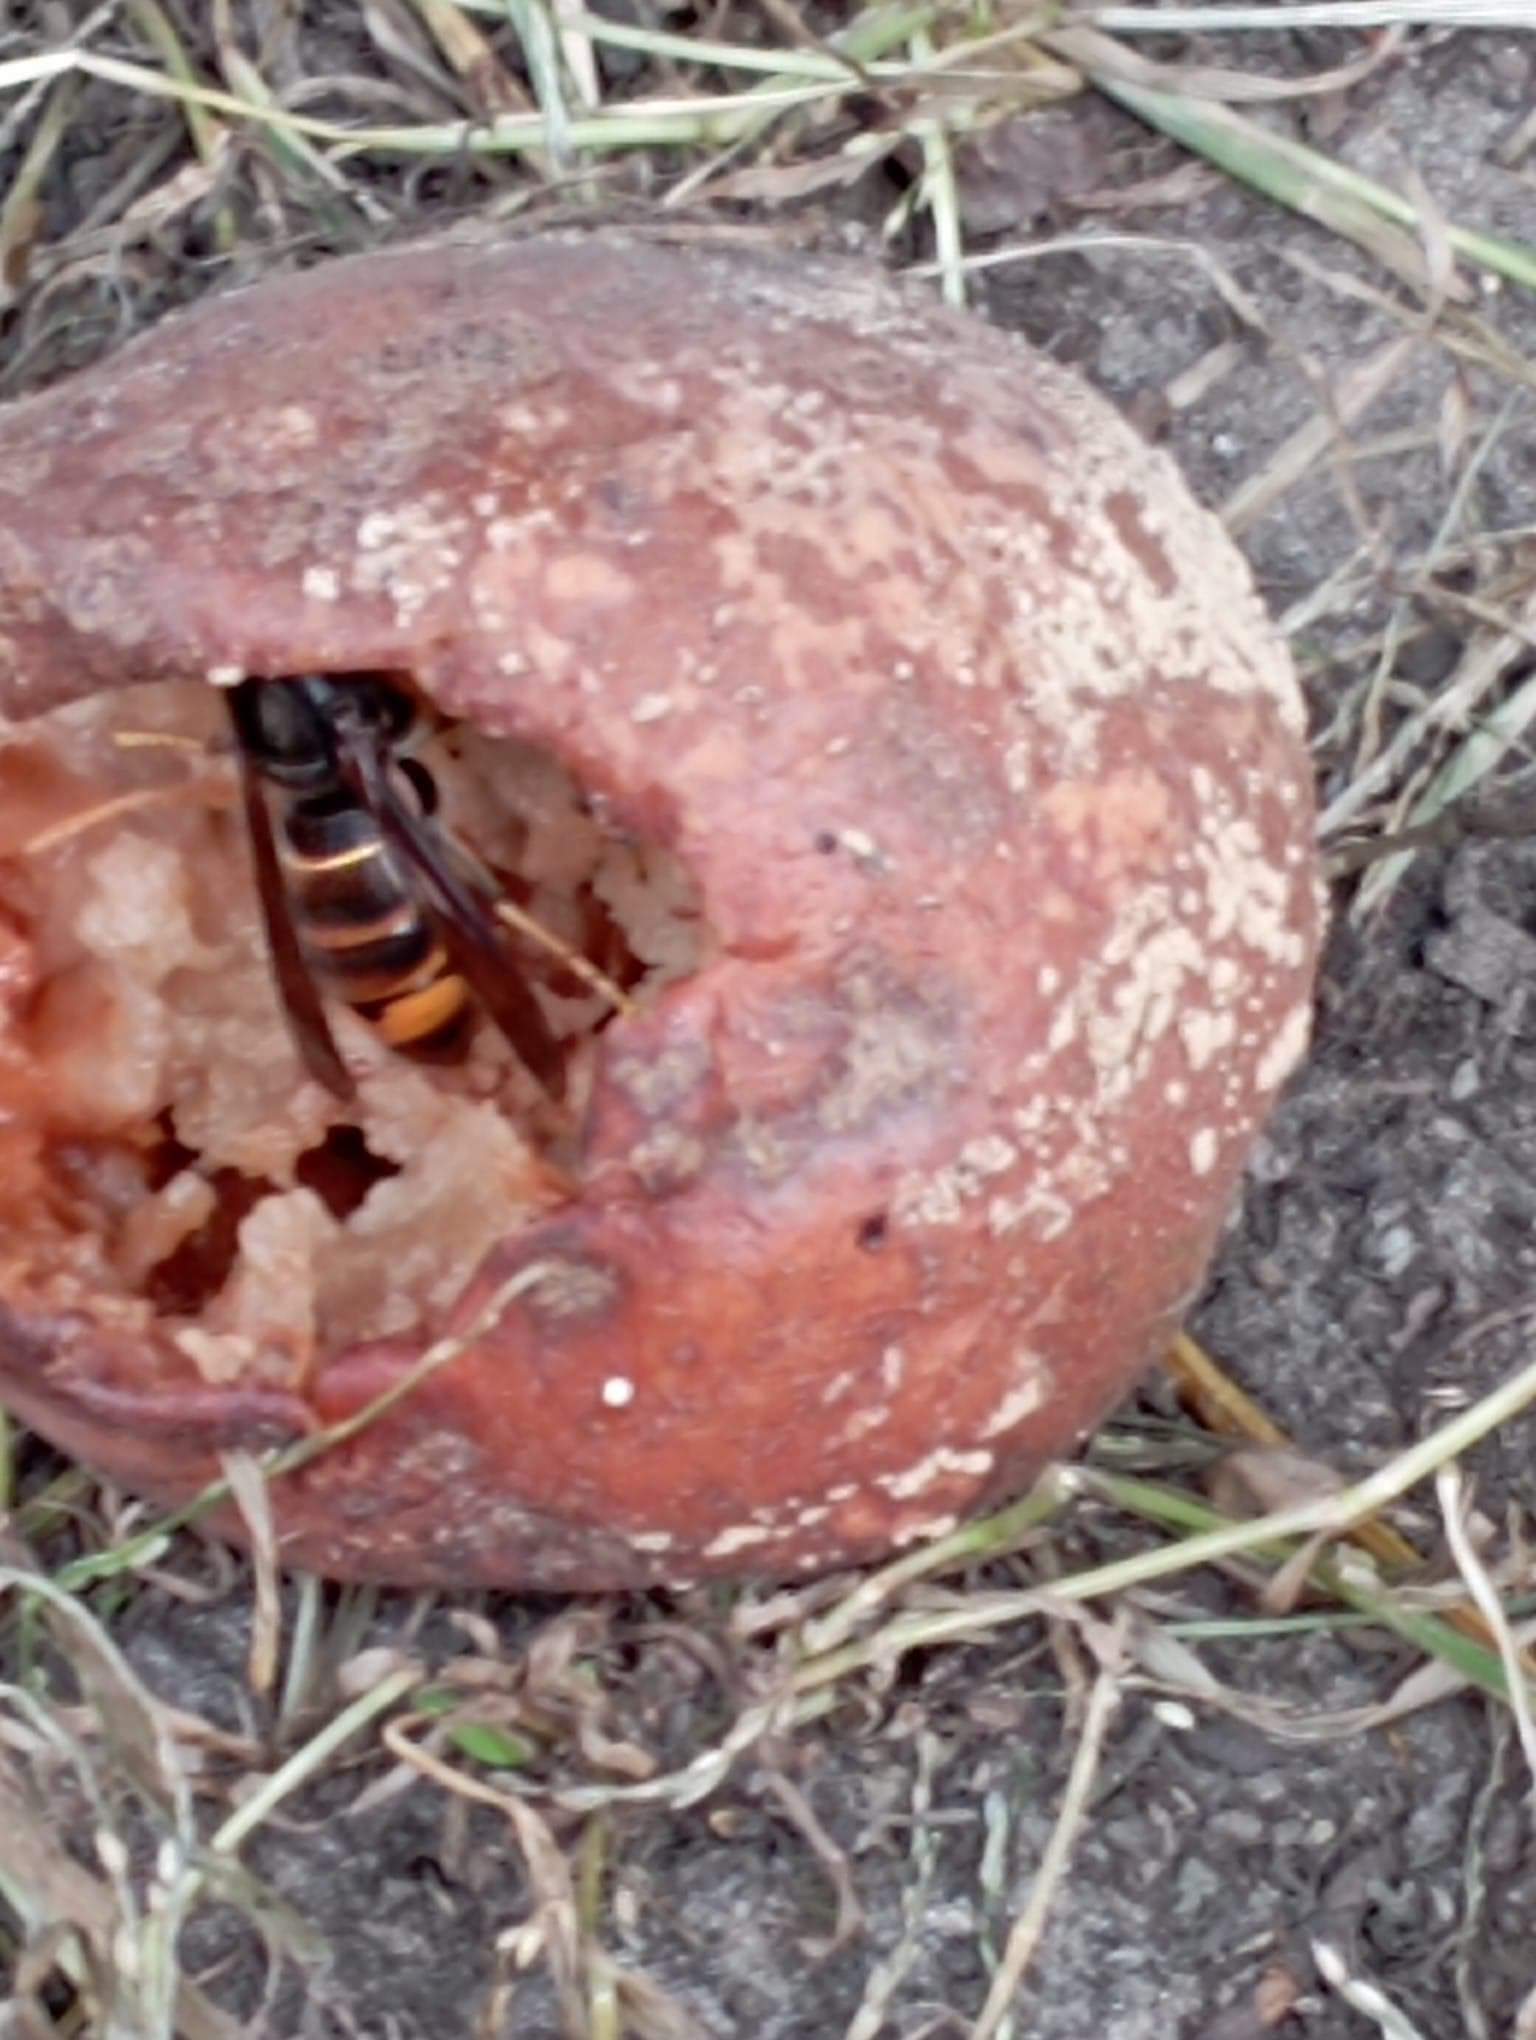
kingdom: Animalia
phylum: Arthropoda
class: Insecta
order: Hymenoptera
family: Vespidae
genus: Vespa
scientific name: Vespa velutina
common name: Asian hornet
